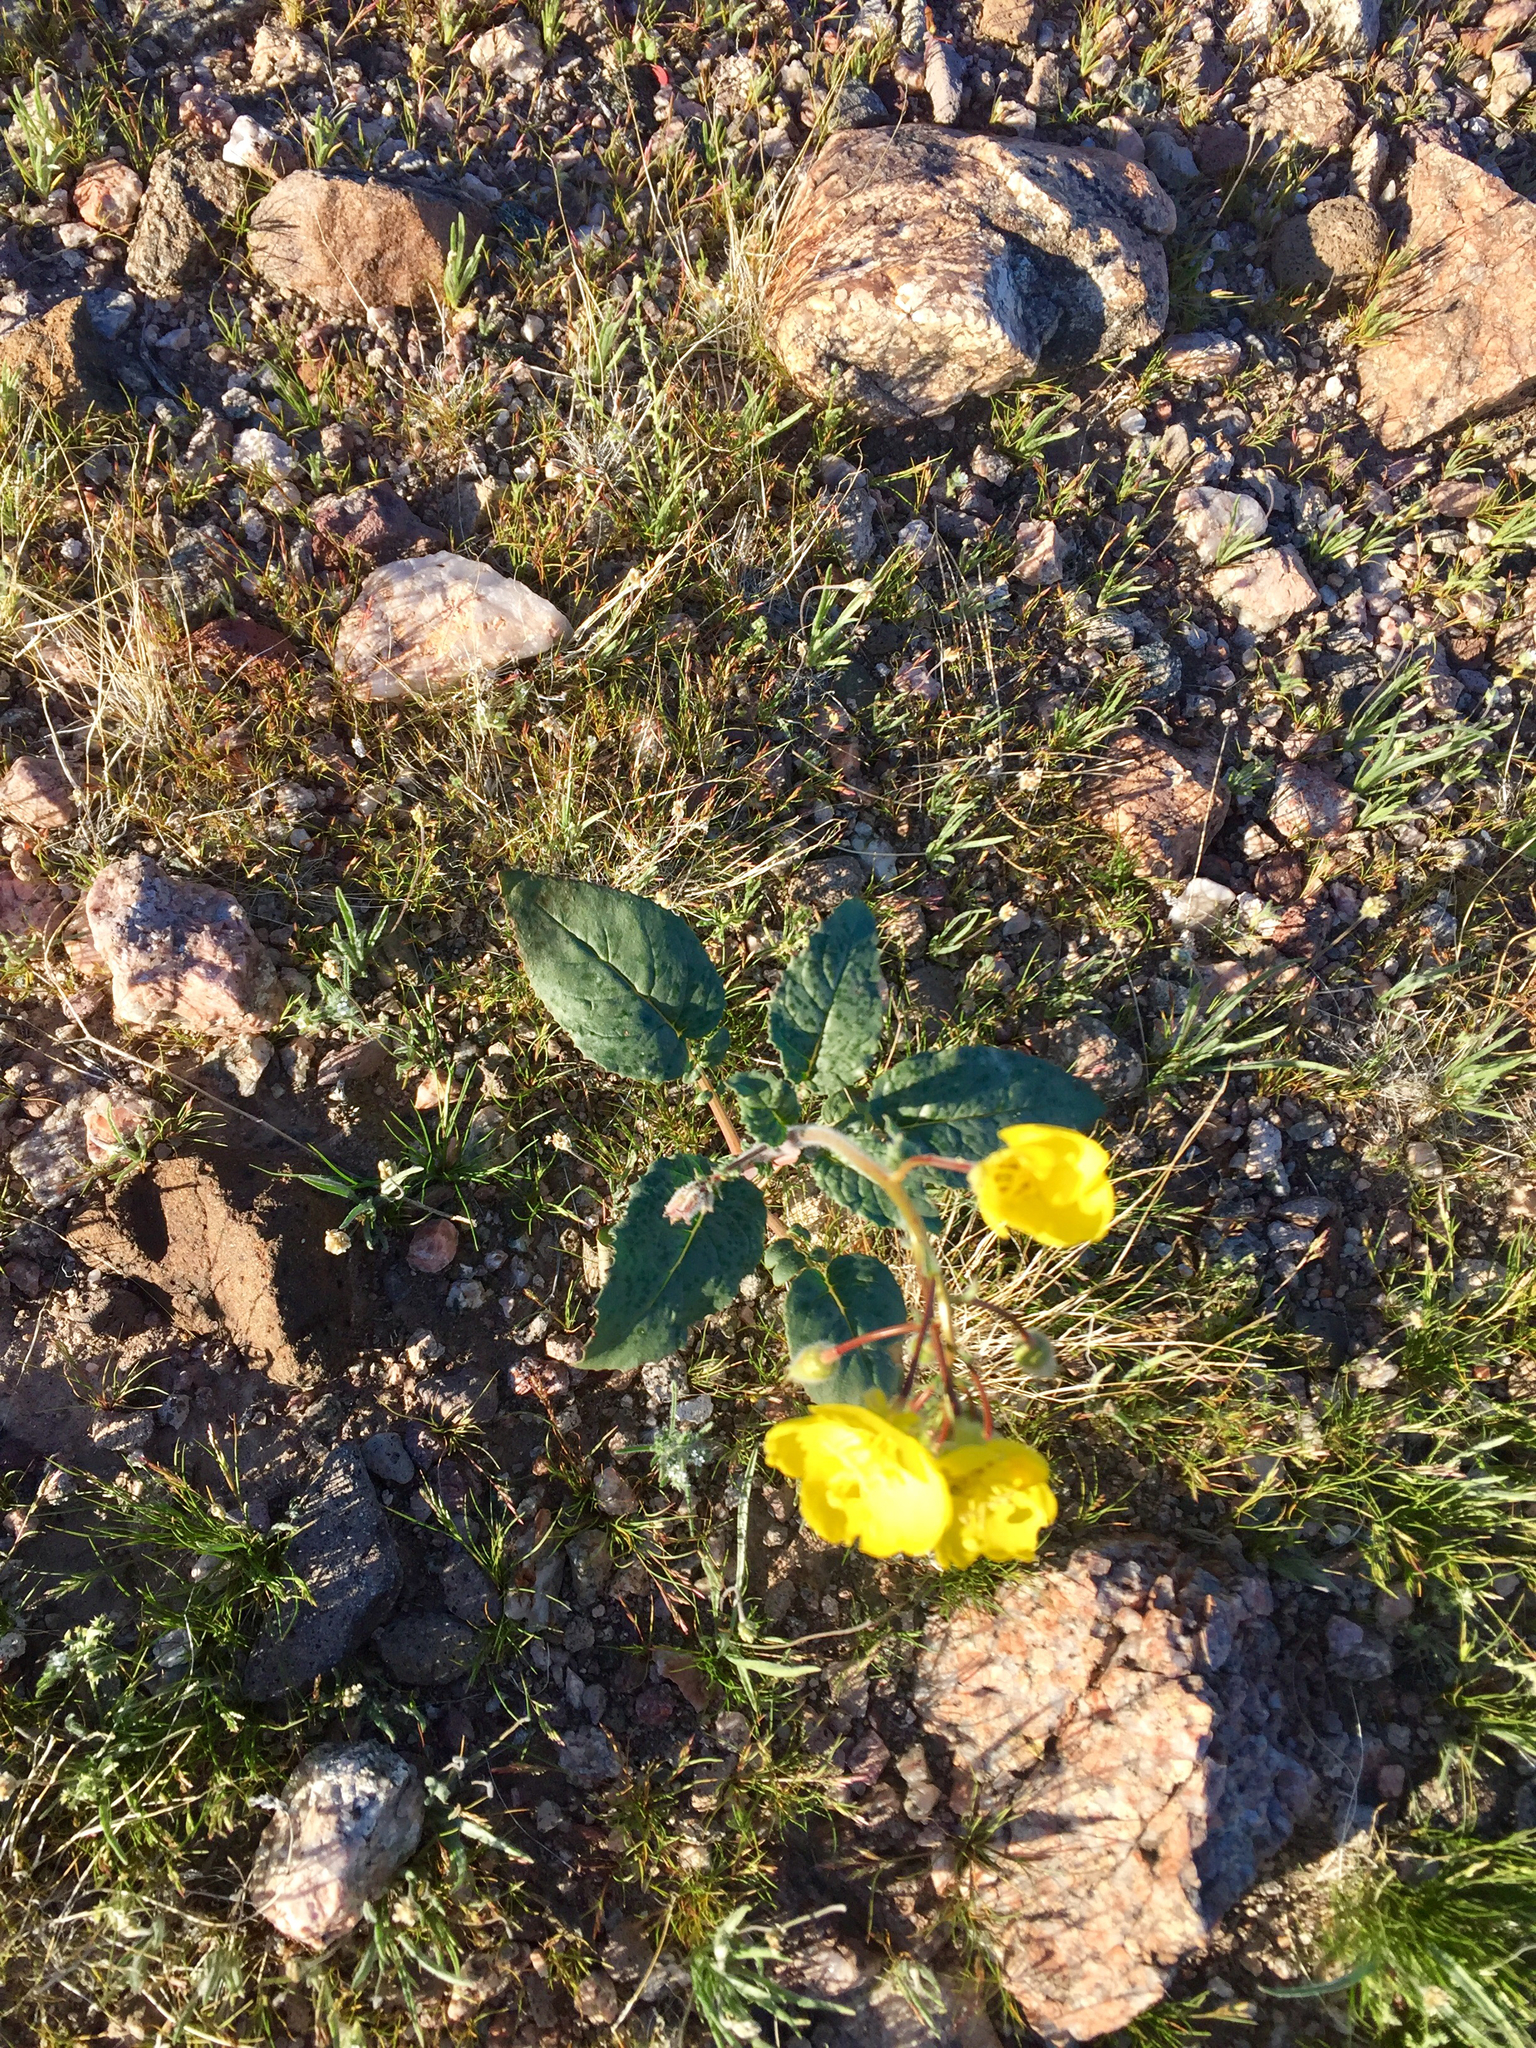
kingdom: Plantae
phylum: Tracheophyta
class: Magnoliopsida
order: Myrtales
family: Onagraceae
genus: Chylismia
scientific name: Chylismia brevipes
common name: Yellow cups
